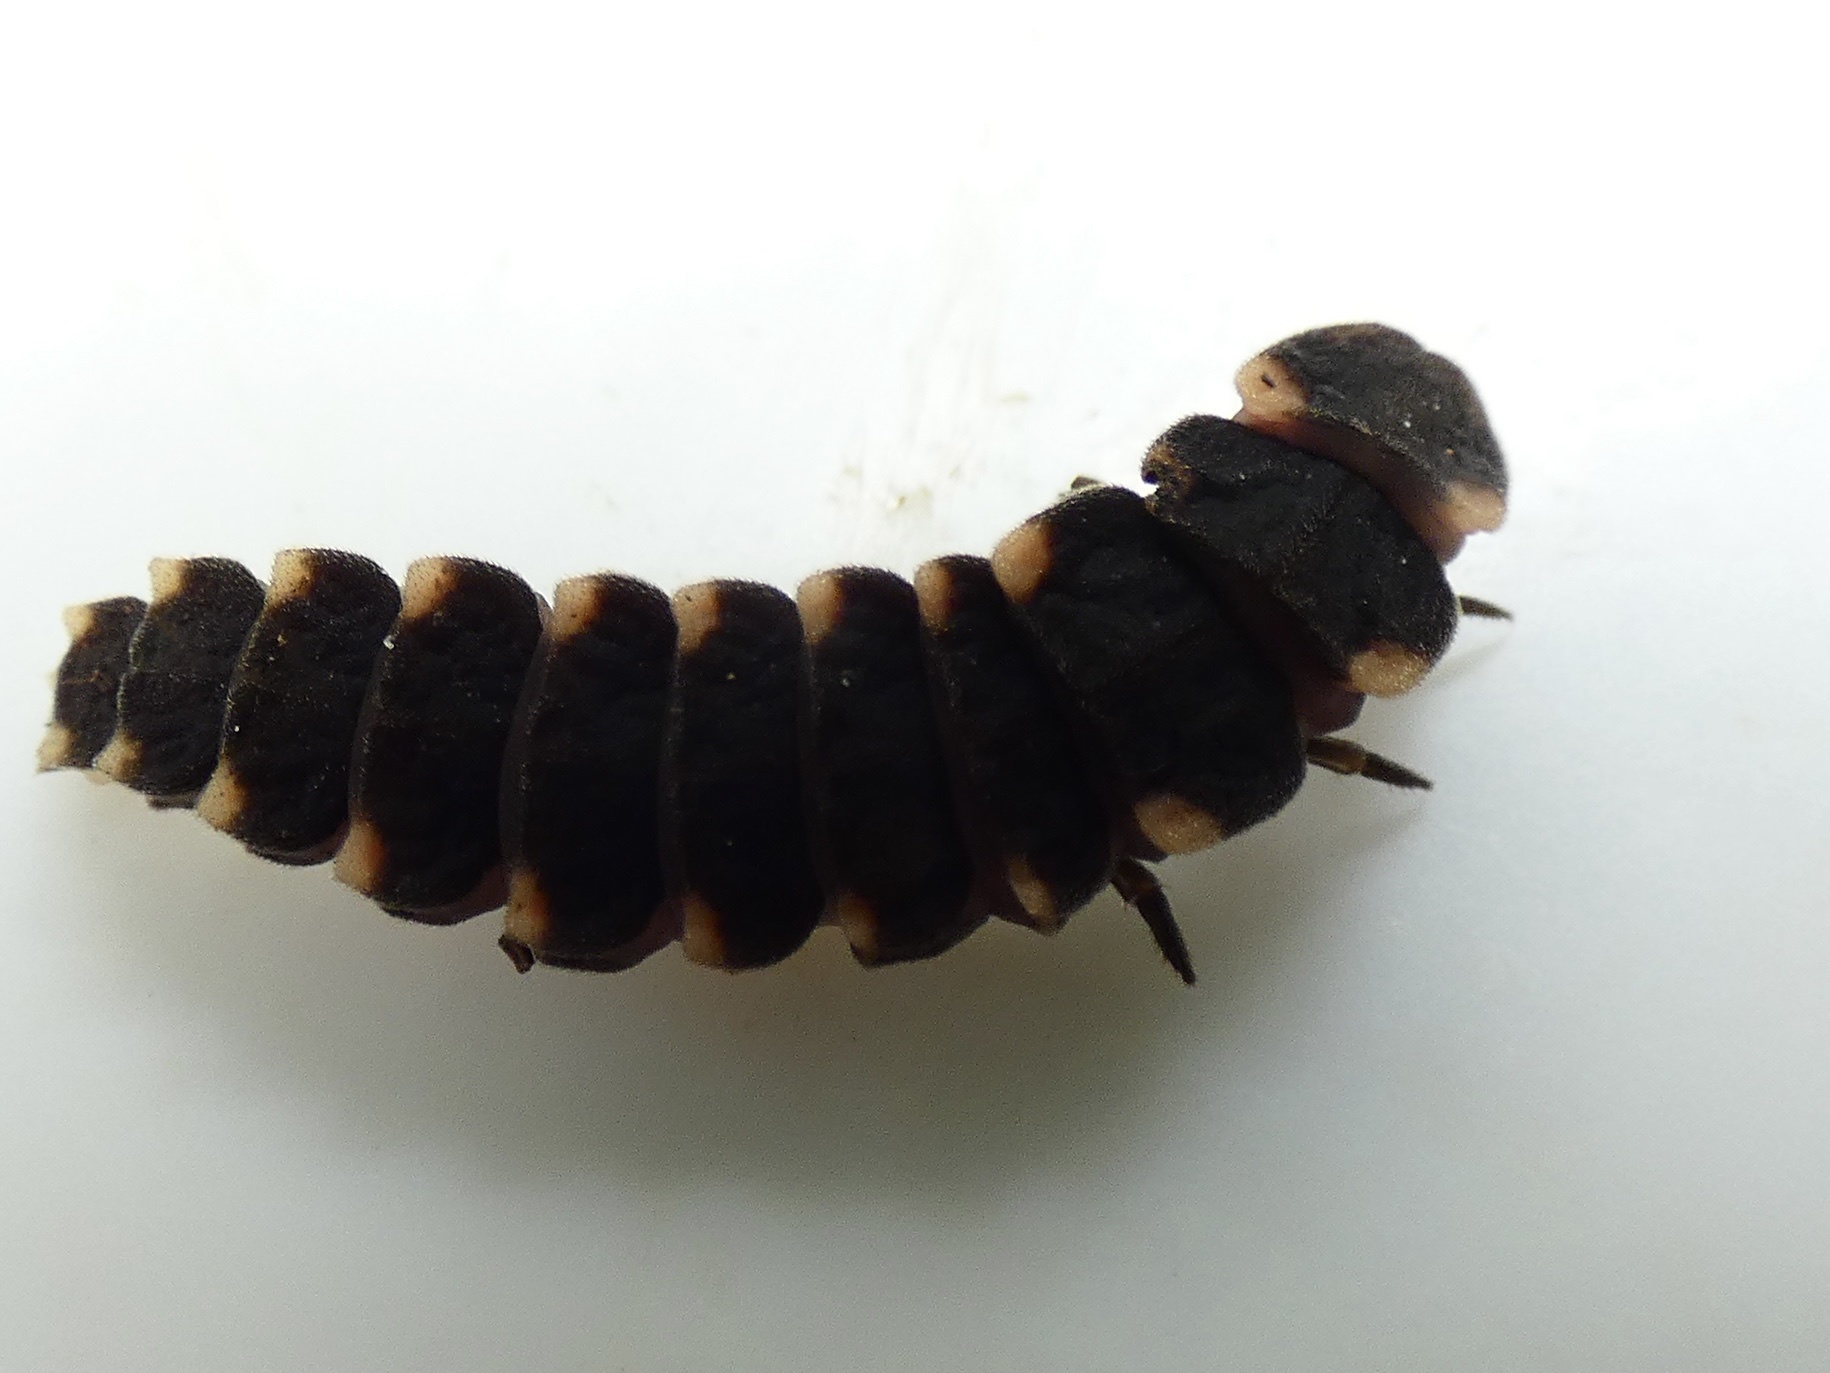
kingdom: Animalia
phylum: Arthropoda
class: Insecta
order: Coleoptera
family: Lampyridae
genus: Lampyris
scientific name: Lampyris noctiluca
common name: Glow-worm
